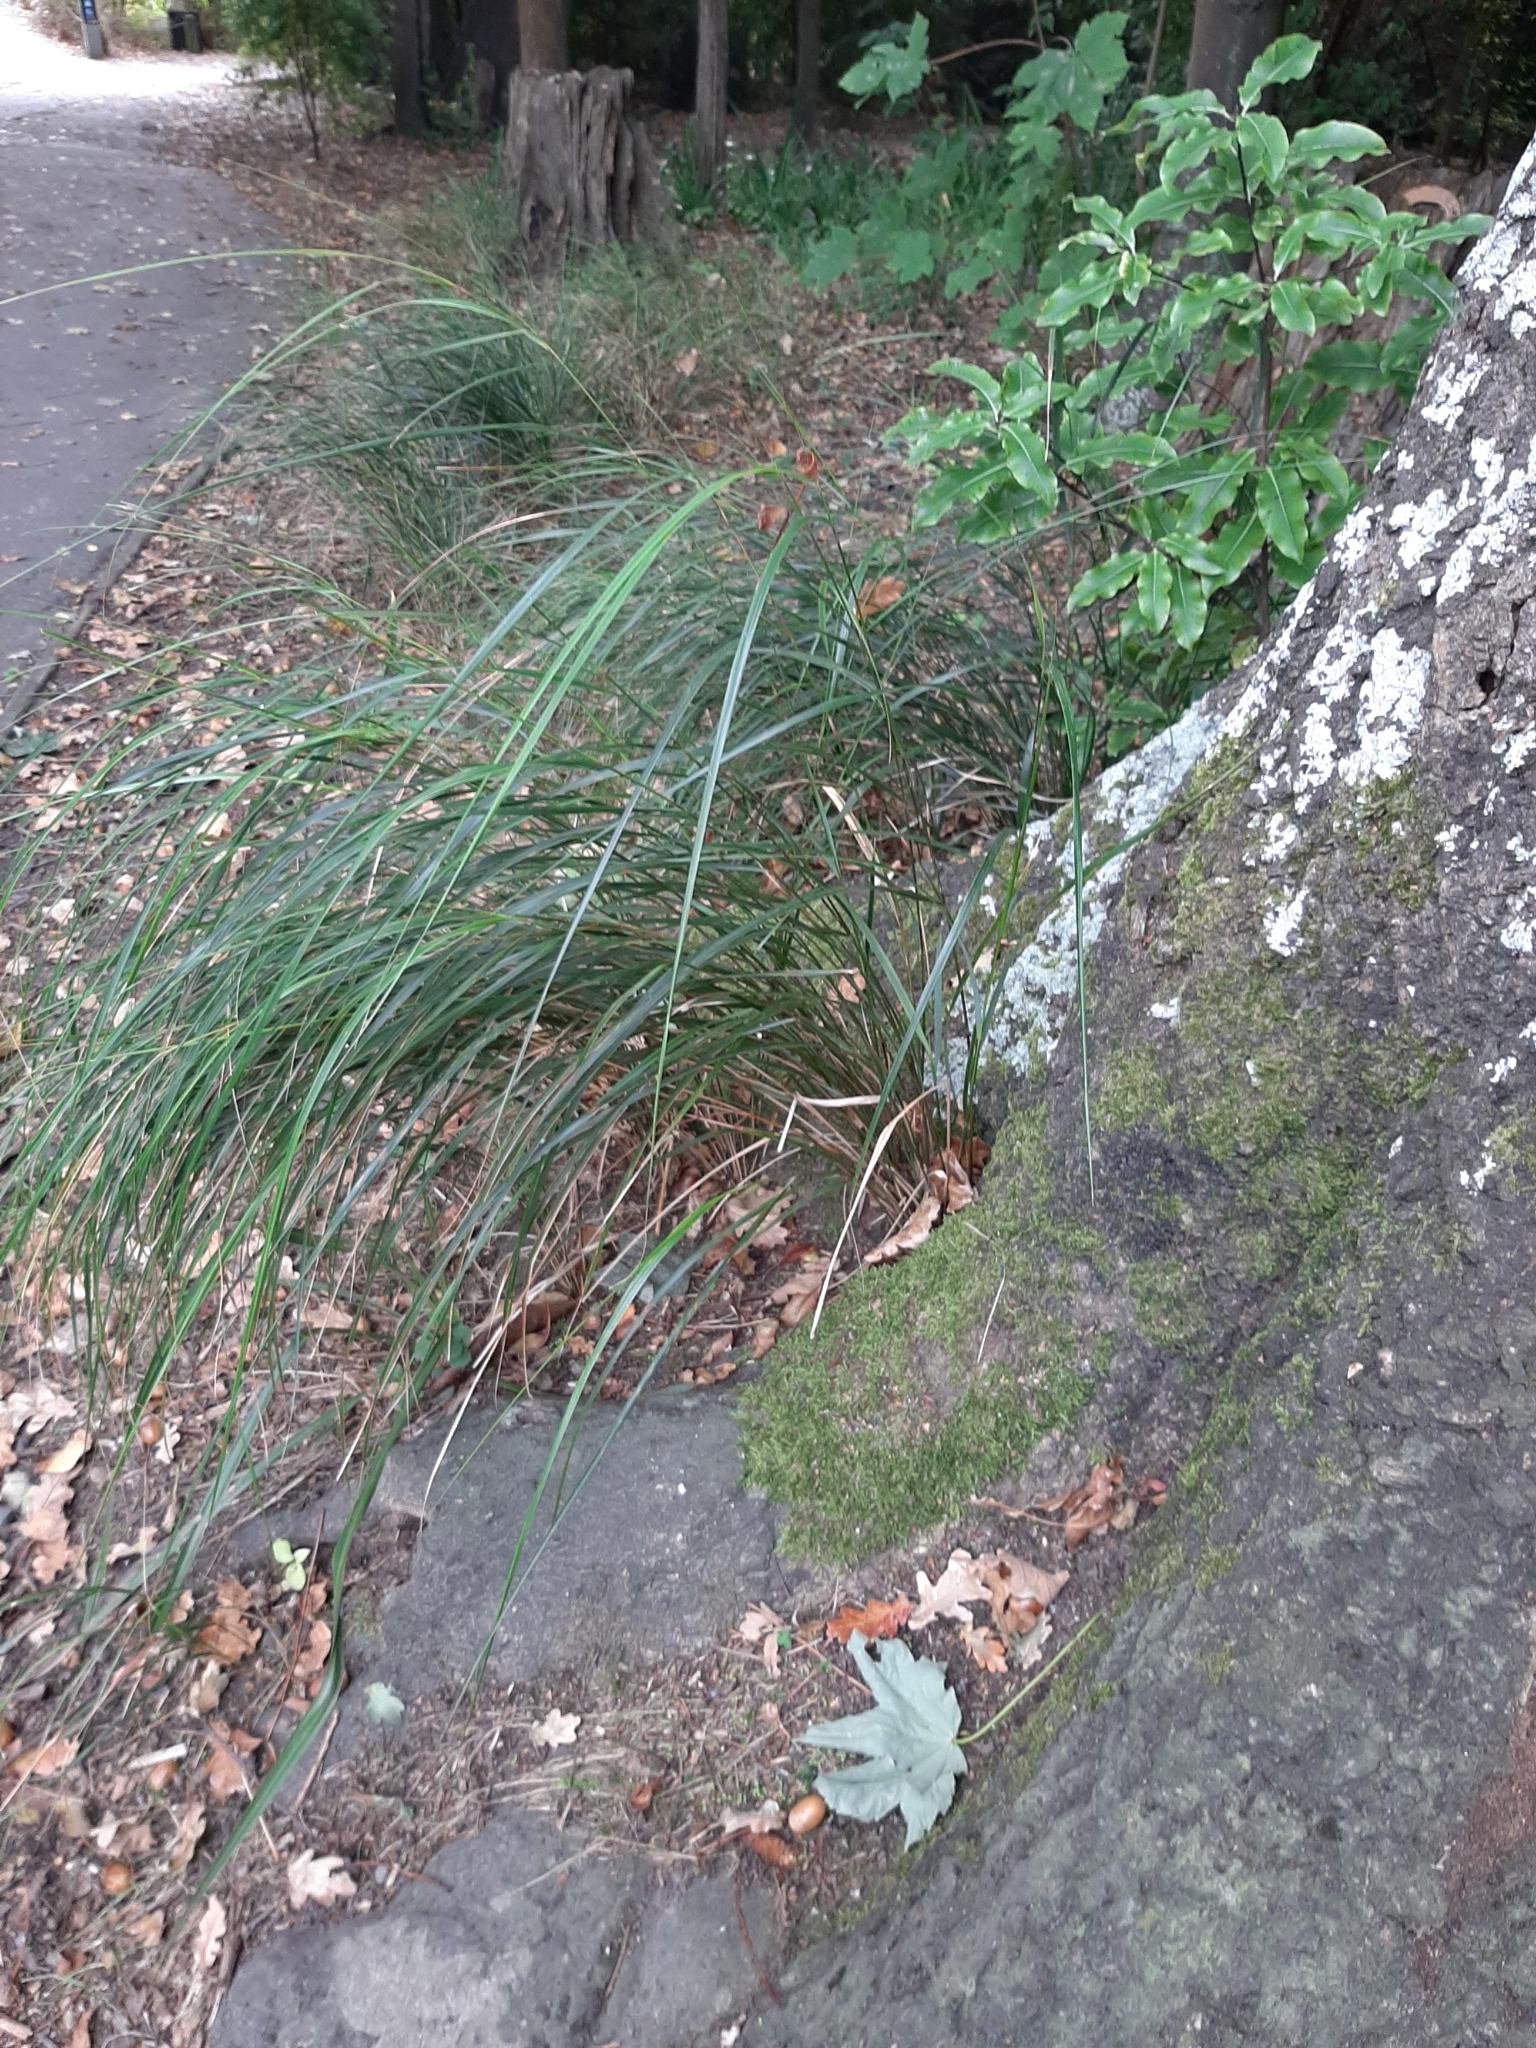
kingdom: Plantae
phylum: Tracheophyta
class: Liliopsida
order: Poales
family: Poaceae
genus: Anemanthele
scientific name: Anemanthele lessoniana
